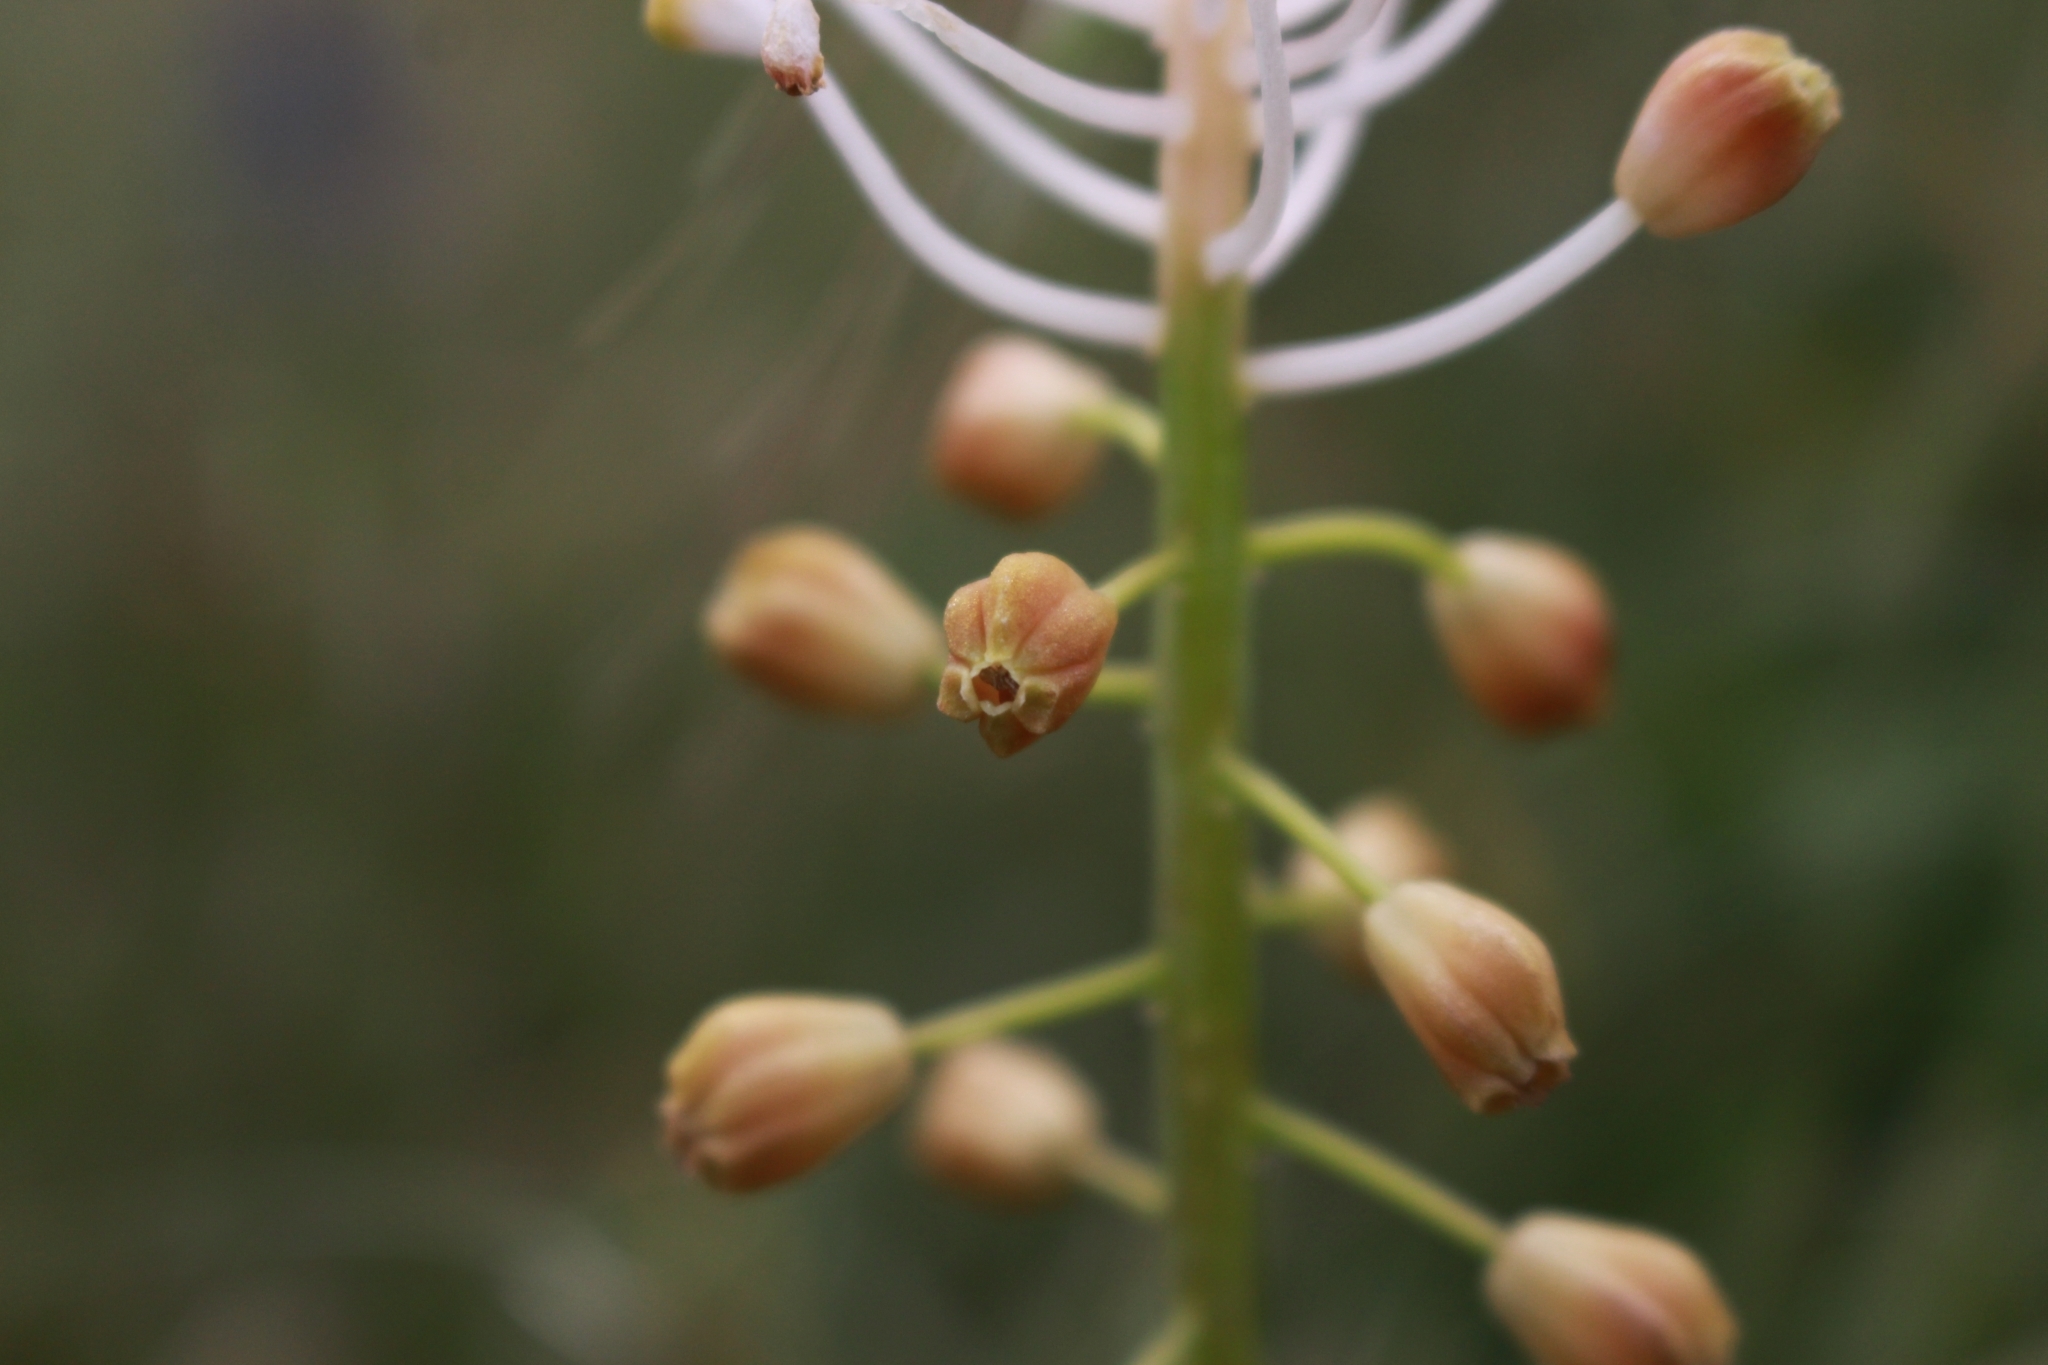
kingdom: Plantae
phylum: Tracheophyta
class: Liliopsida
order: Asparagales
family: Asparagaceae
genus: Muscari
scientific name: Muscari comosum
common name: Tassel hyacinth
